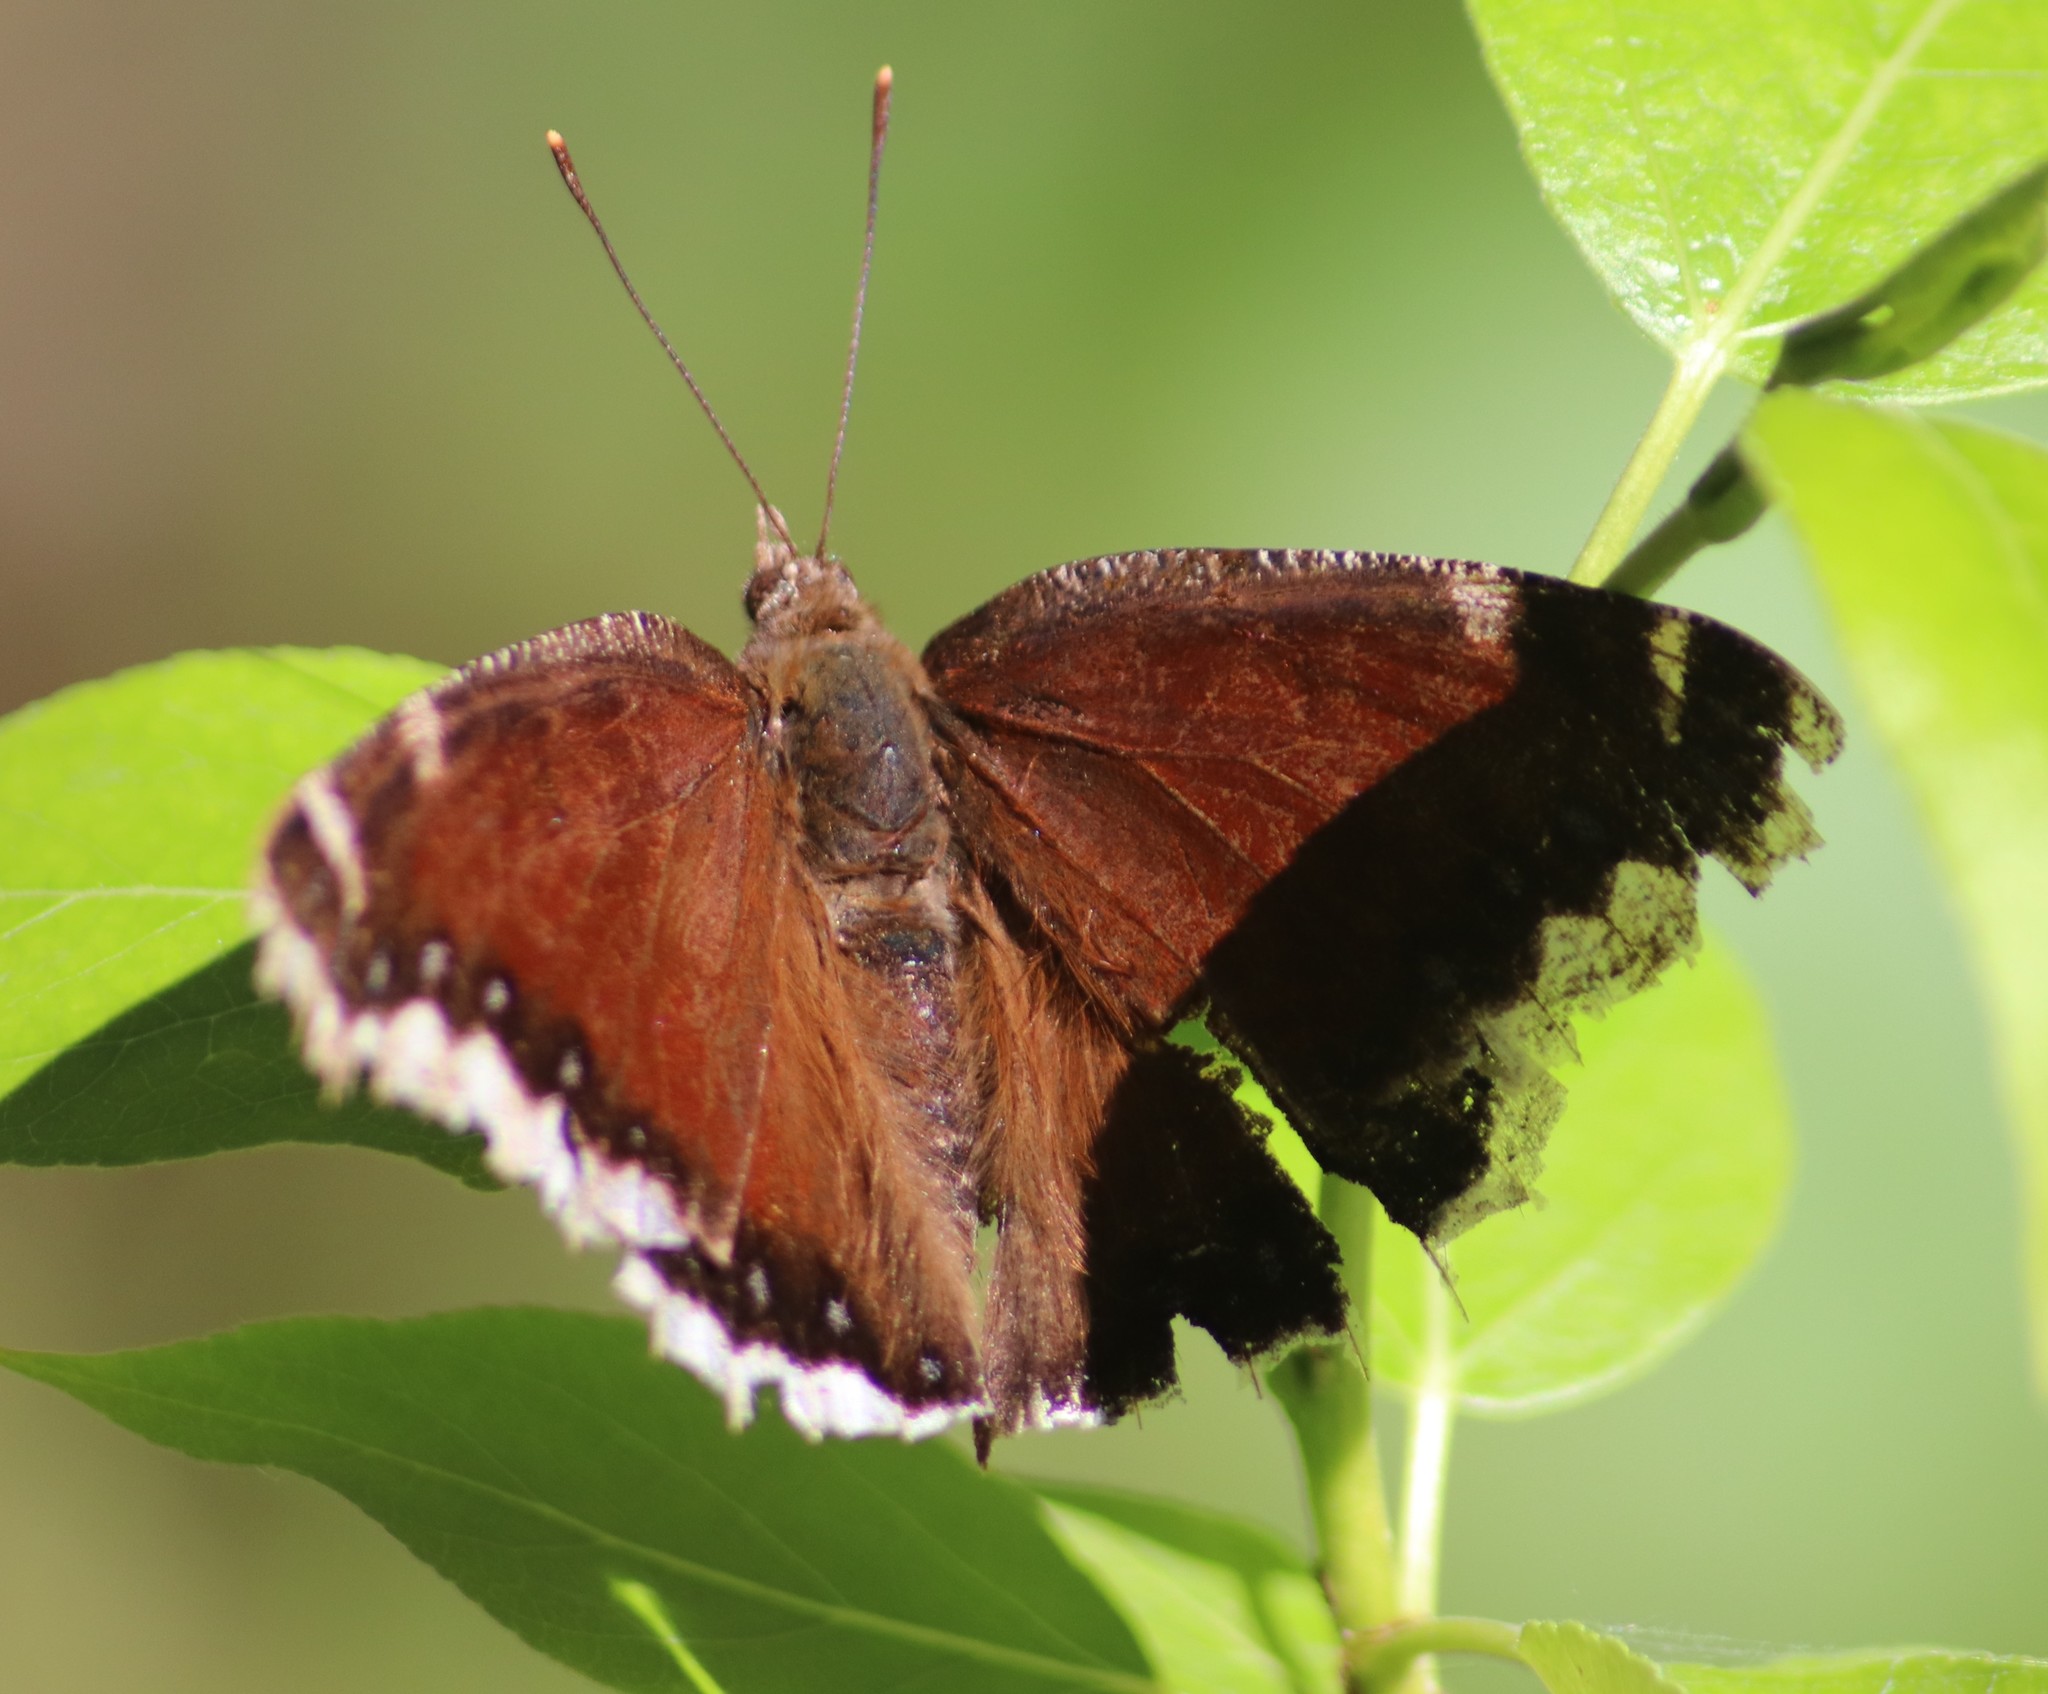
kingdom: Animalia
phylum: Arthropoda
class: Insecta
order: Lepidoptera
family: Nymphalidae
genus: Nymphalis
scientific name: Nymphalis antiopa
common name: Camberwell beauty
